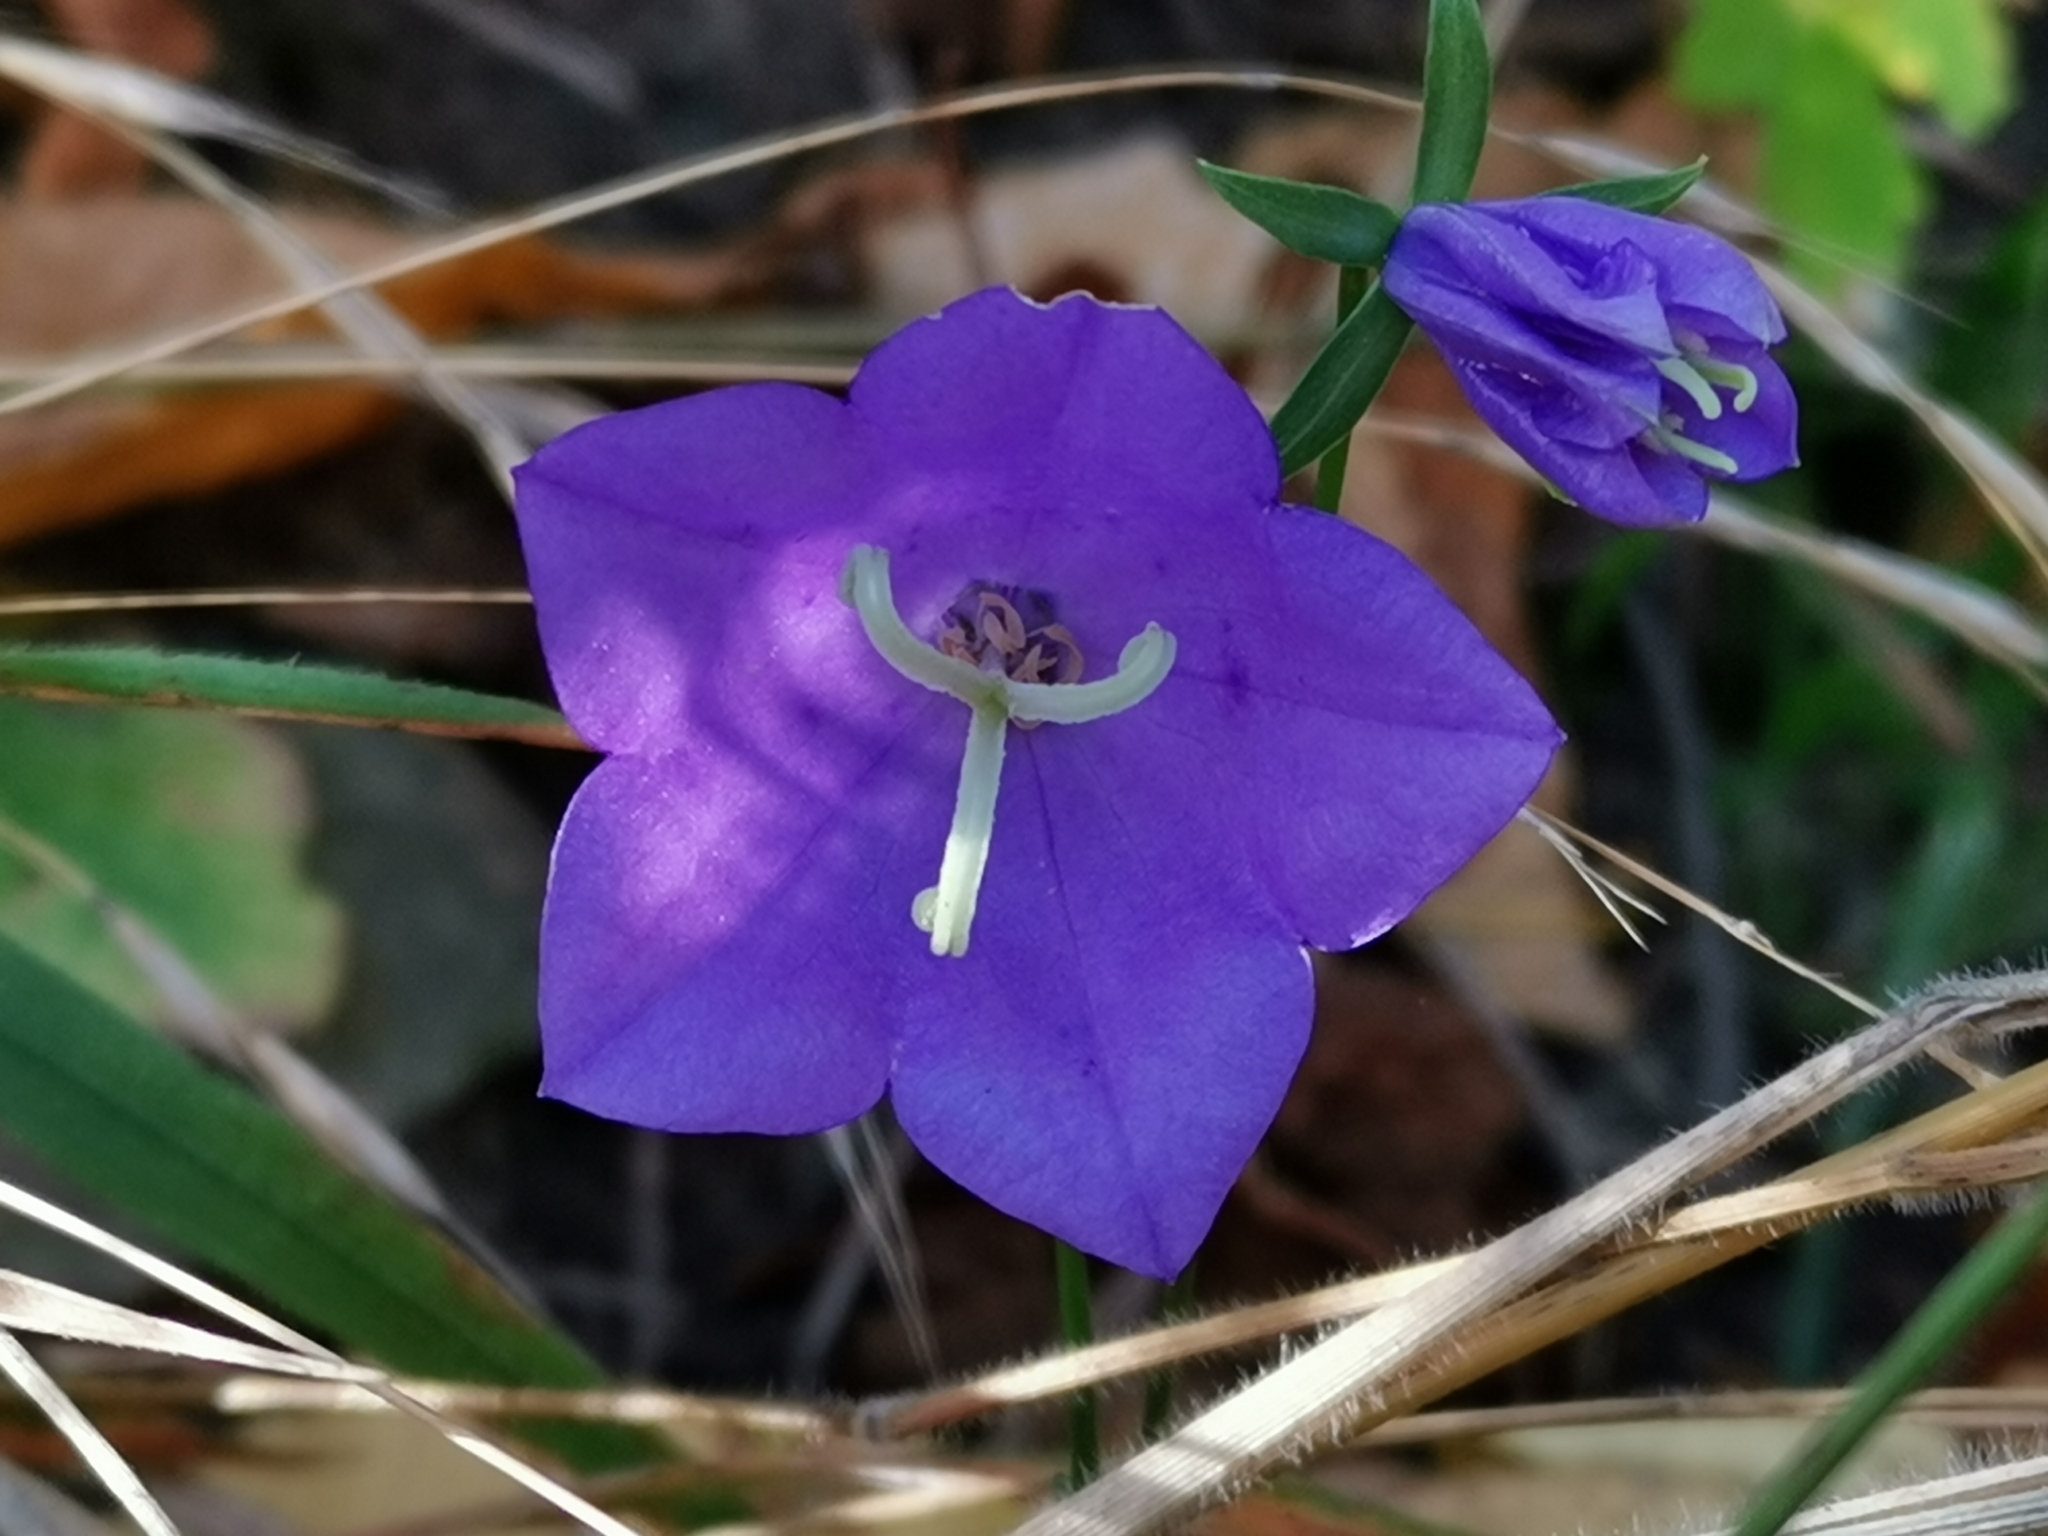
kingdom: Plantae
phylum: Tracheophyta
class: Magnoliopsida
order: Asterales
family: Campanulaceae
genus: Campanula
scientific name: Campanula persicifolia
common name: Peach-leaved bellflower
